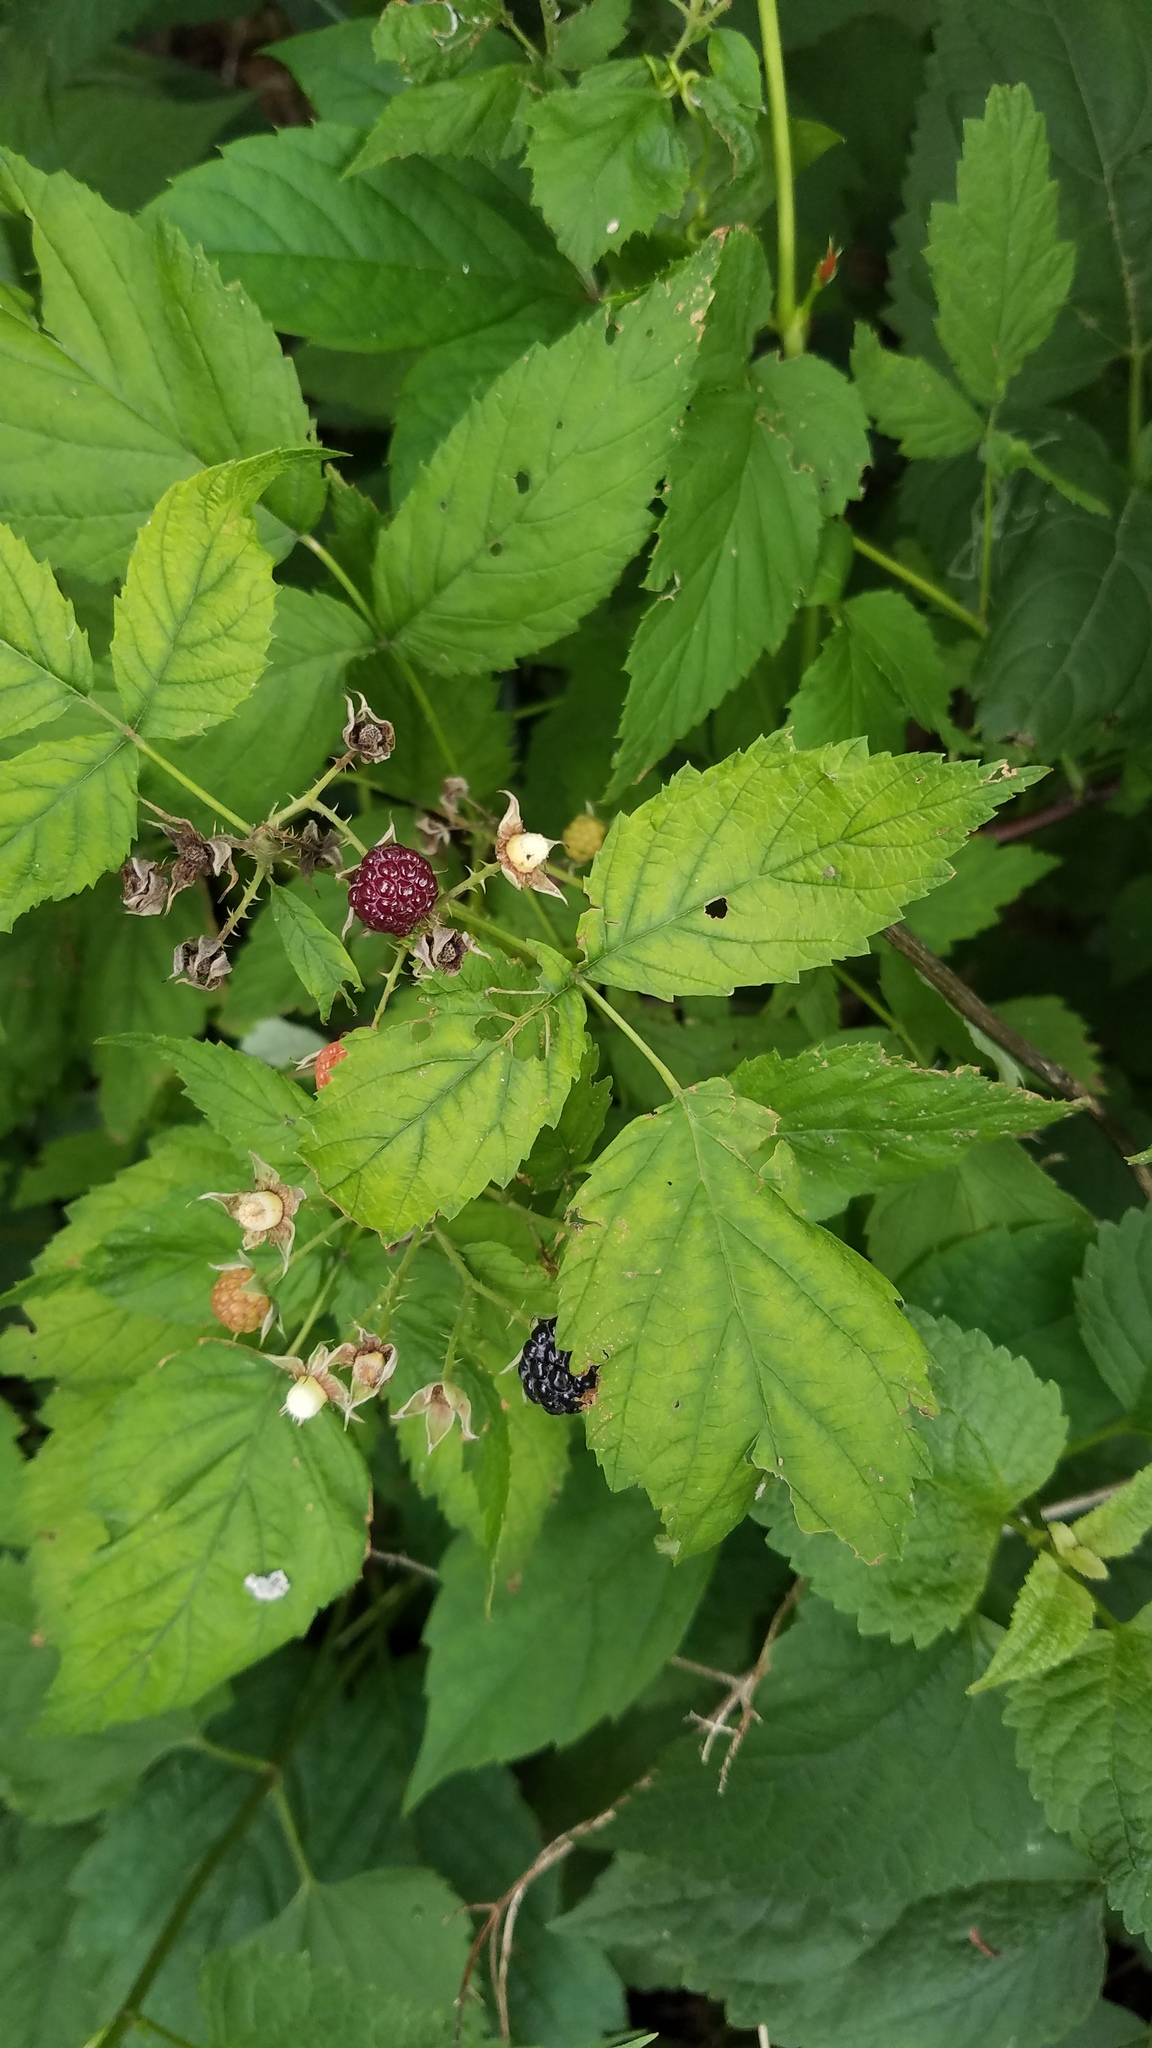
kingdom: Plantae
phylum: Tracheophyta
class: Magnoliopsida
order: Rosales
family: Rosaceae
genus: Rubus
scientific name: Rubus occidentalis
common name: Black raspberry
